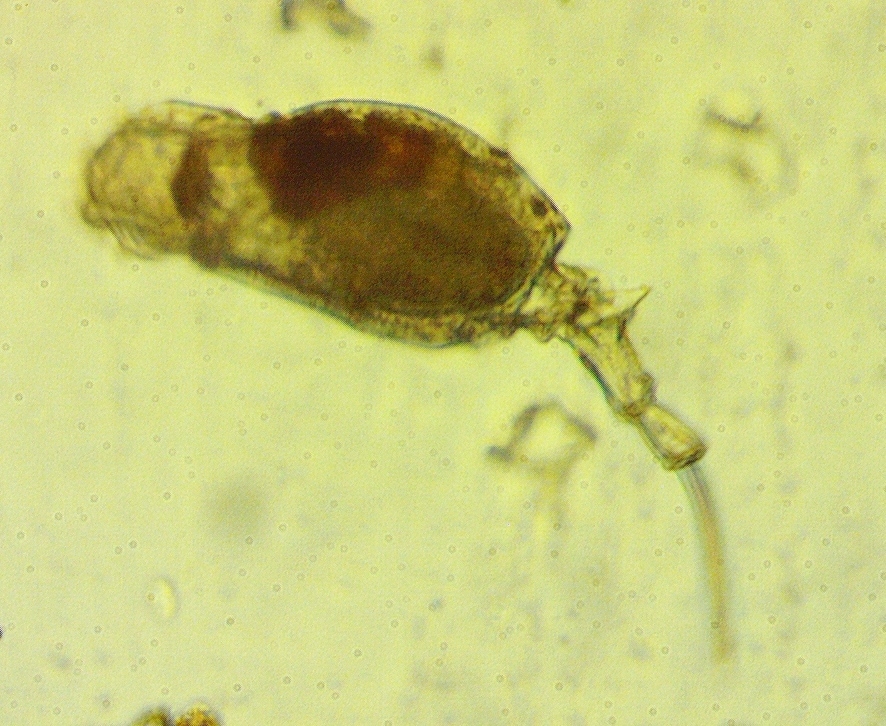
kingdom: Animalia
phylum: Rotifera
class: Eurotatoria
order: Ploima
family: Trichotriidae
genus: Trichotria
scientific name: Trichotria tetractis
